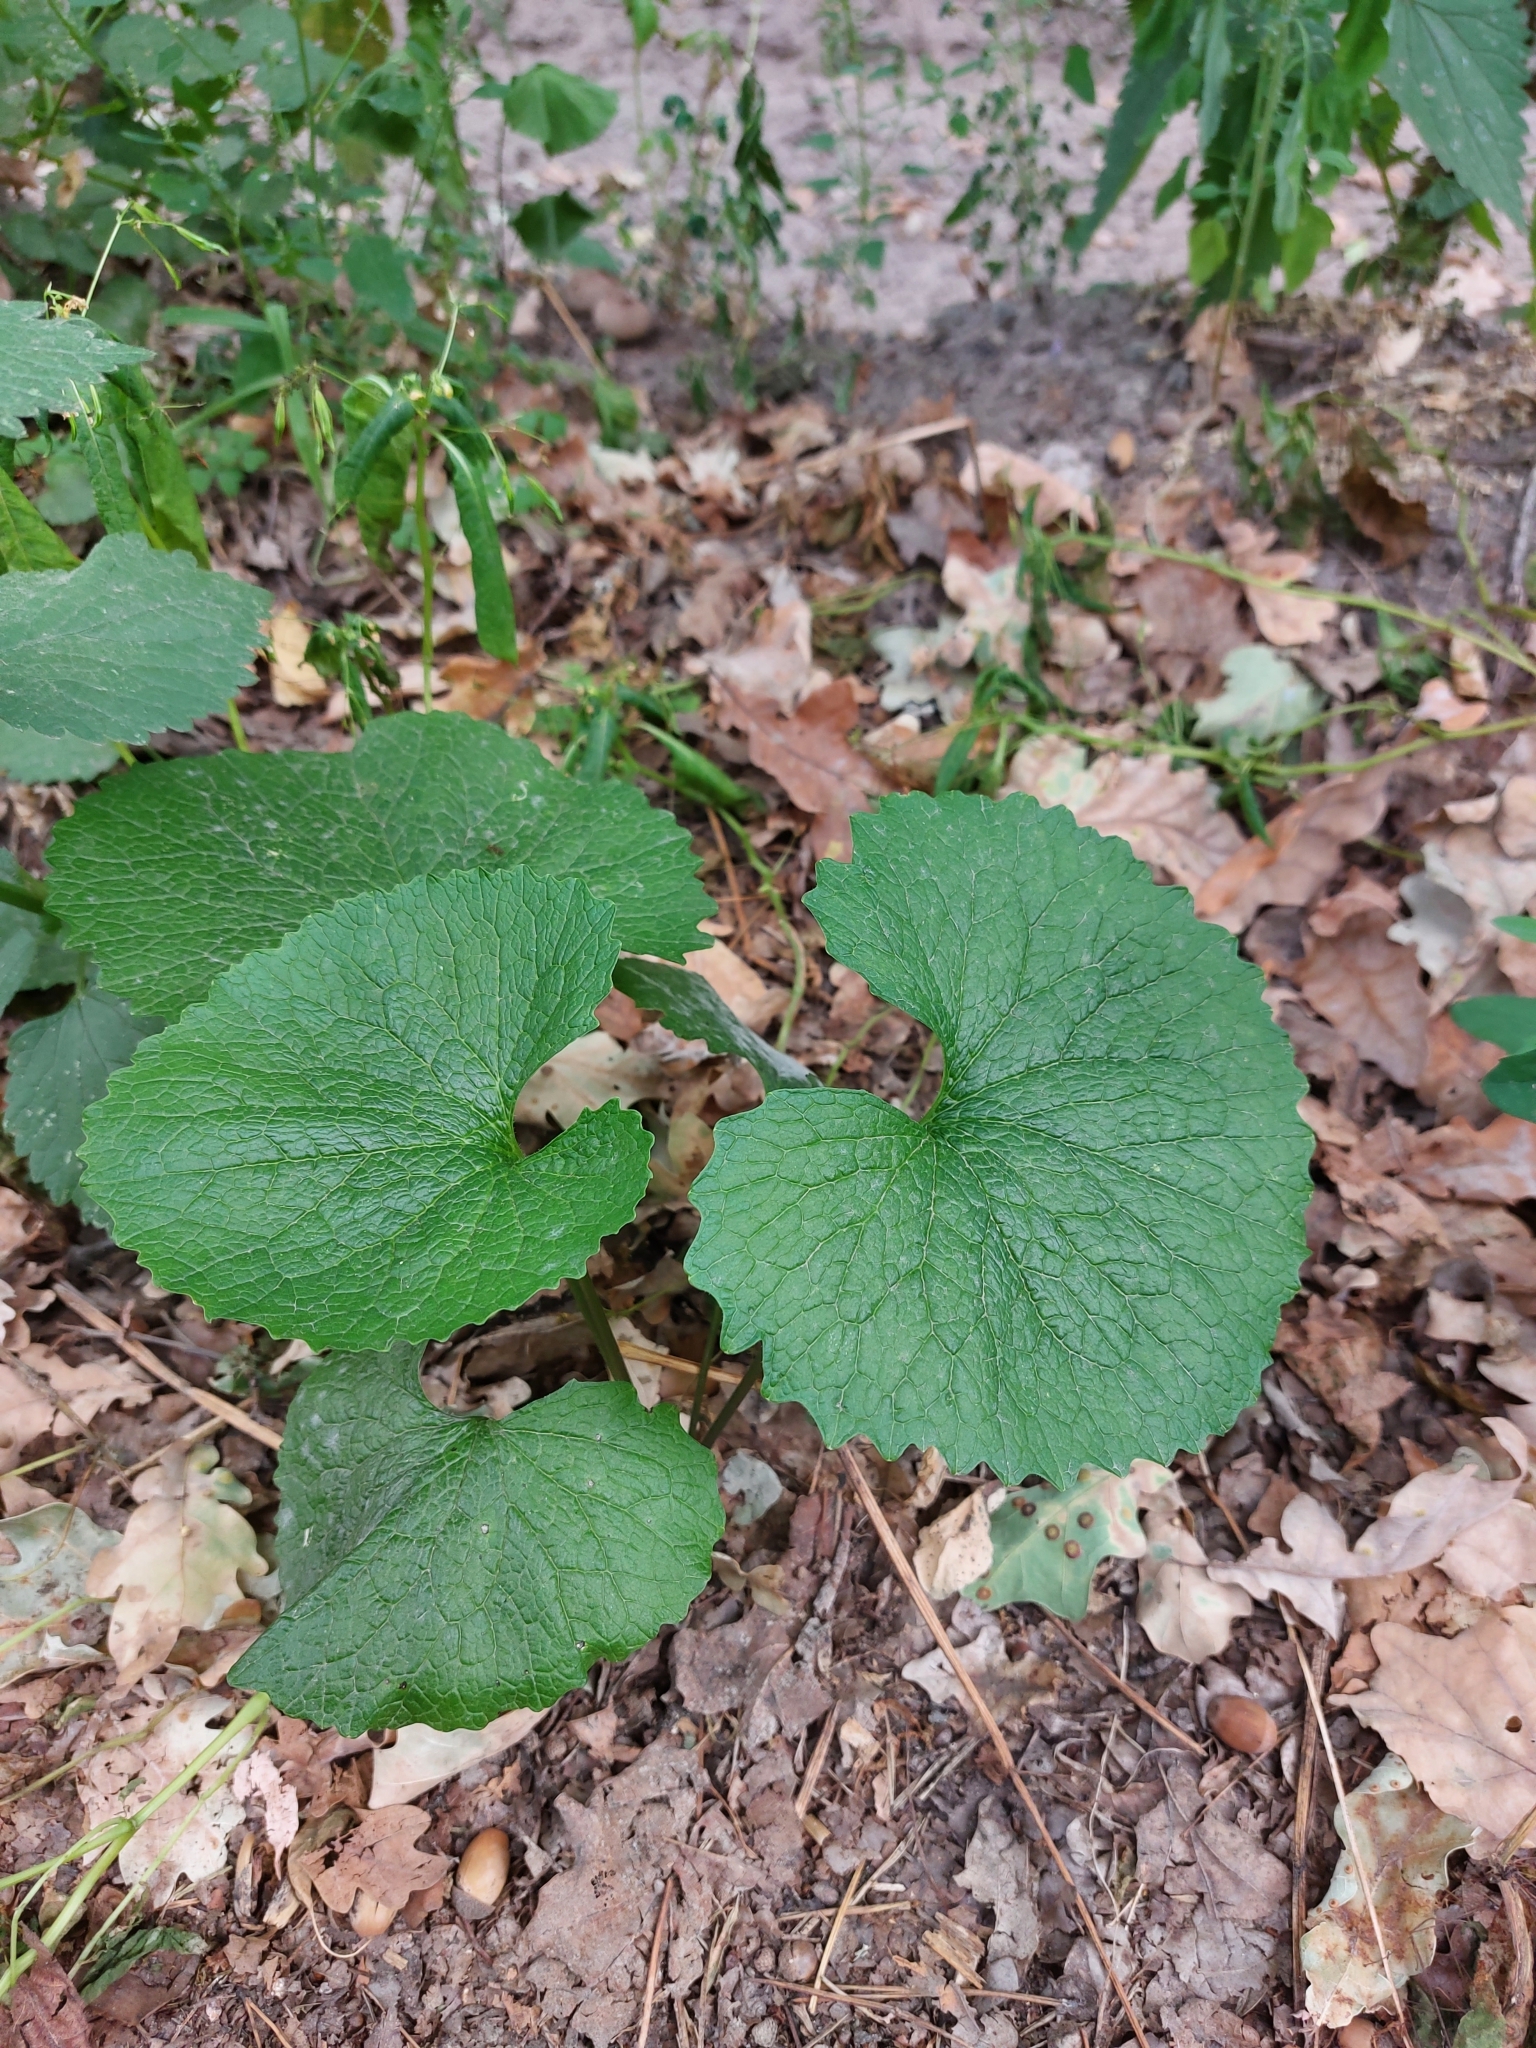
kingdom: Plantae
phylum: Tracheophyta
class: Magnoliopsida
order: Brassicales
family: Brassicaceae
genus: Alliaria
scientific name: Alliaria petiolata
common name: Garlic mustard
